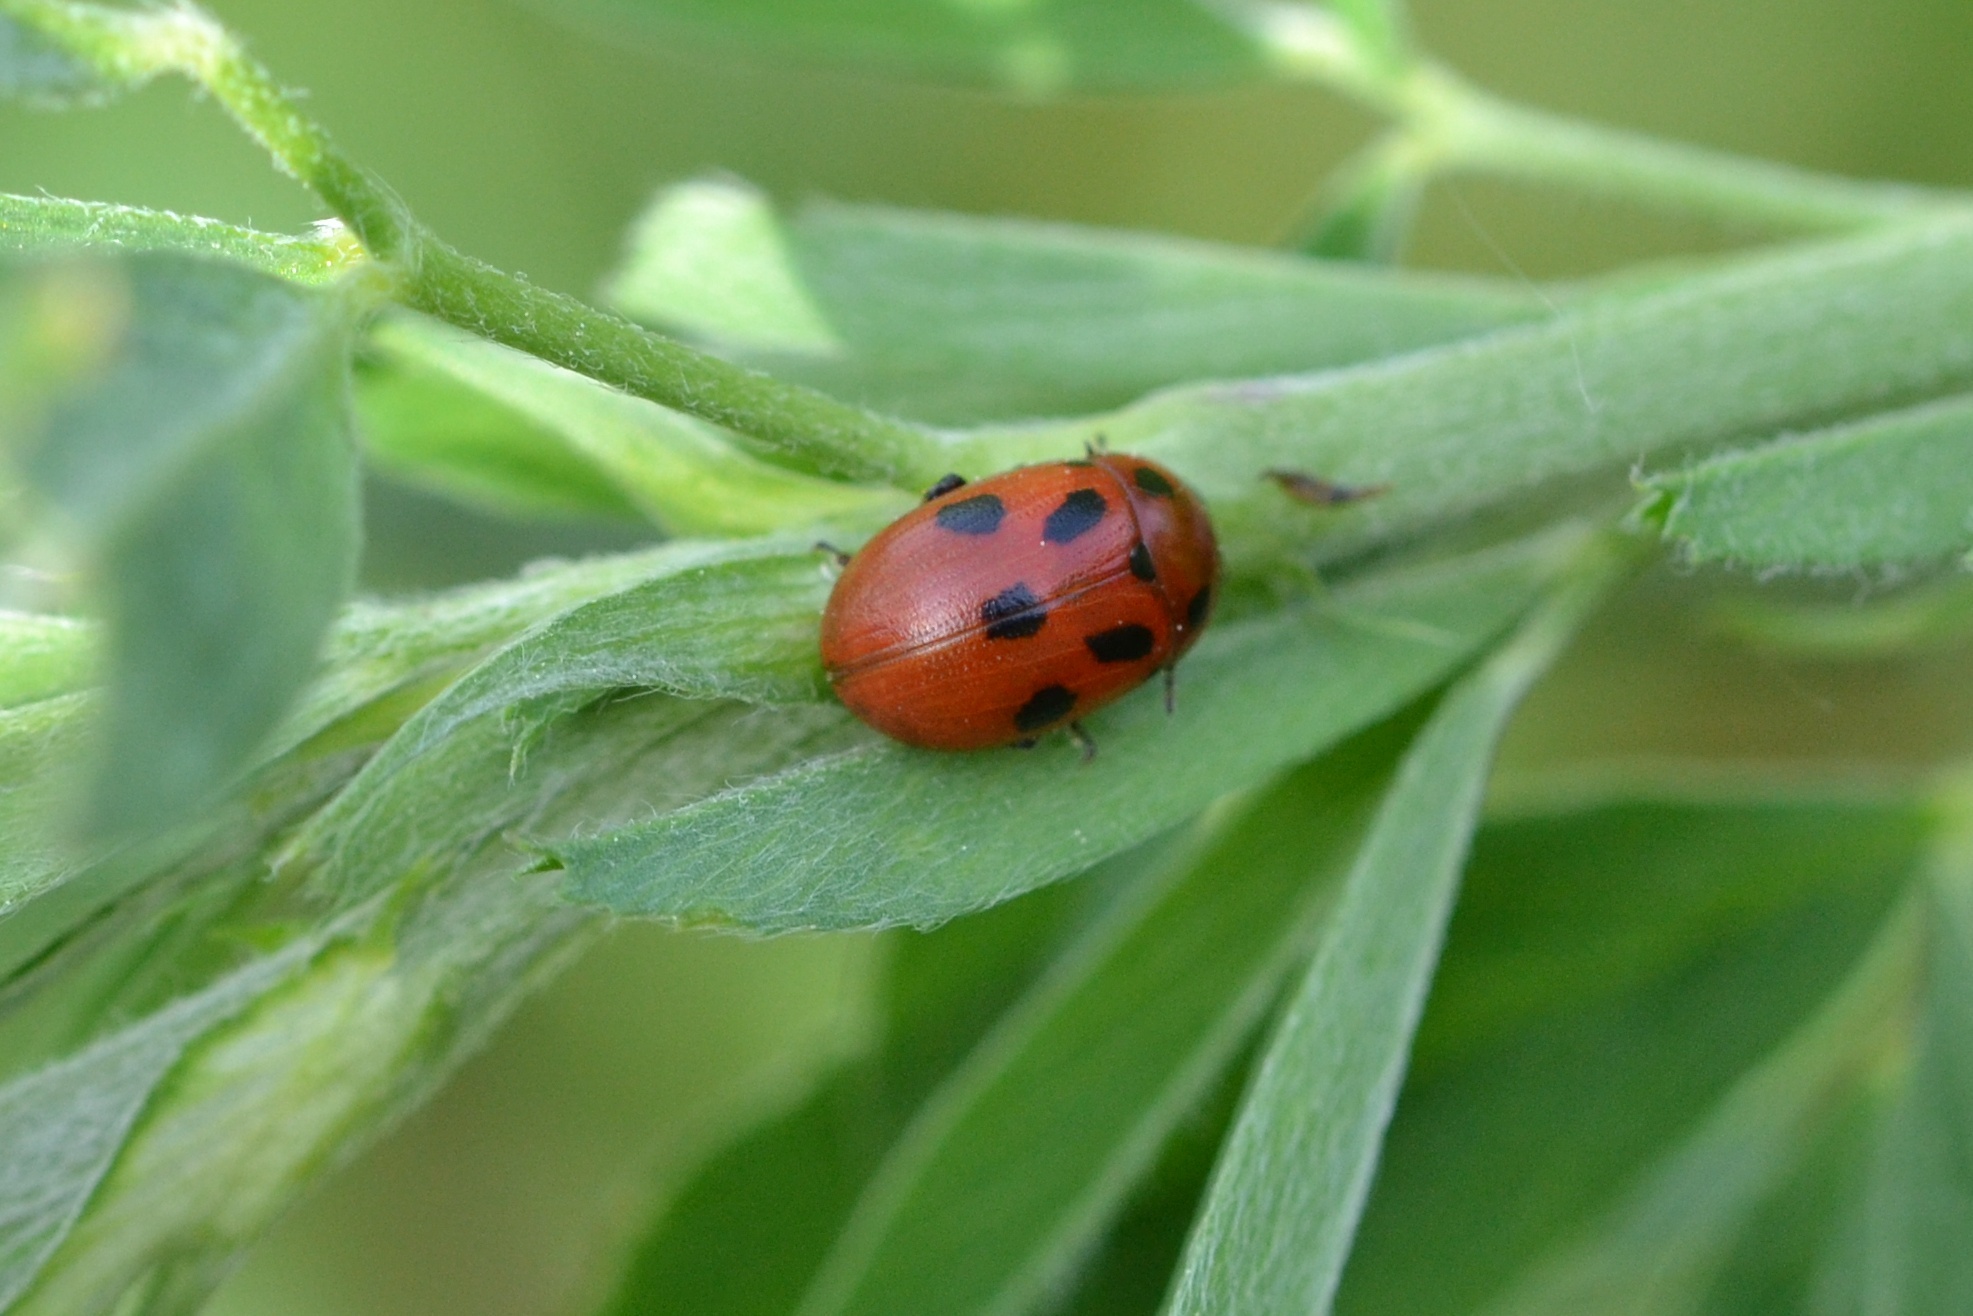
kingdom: Animalia
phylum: Arthropoda
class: Insecta
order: Coleoptera
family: Chrysomelidae
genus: Gonioctena
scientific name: Gonioctena fornicata
